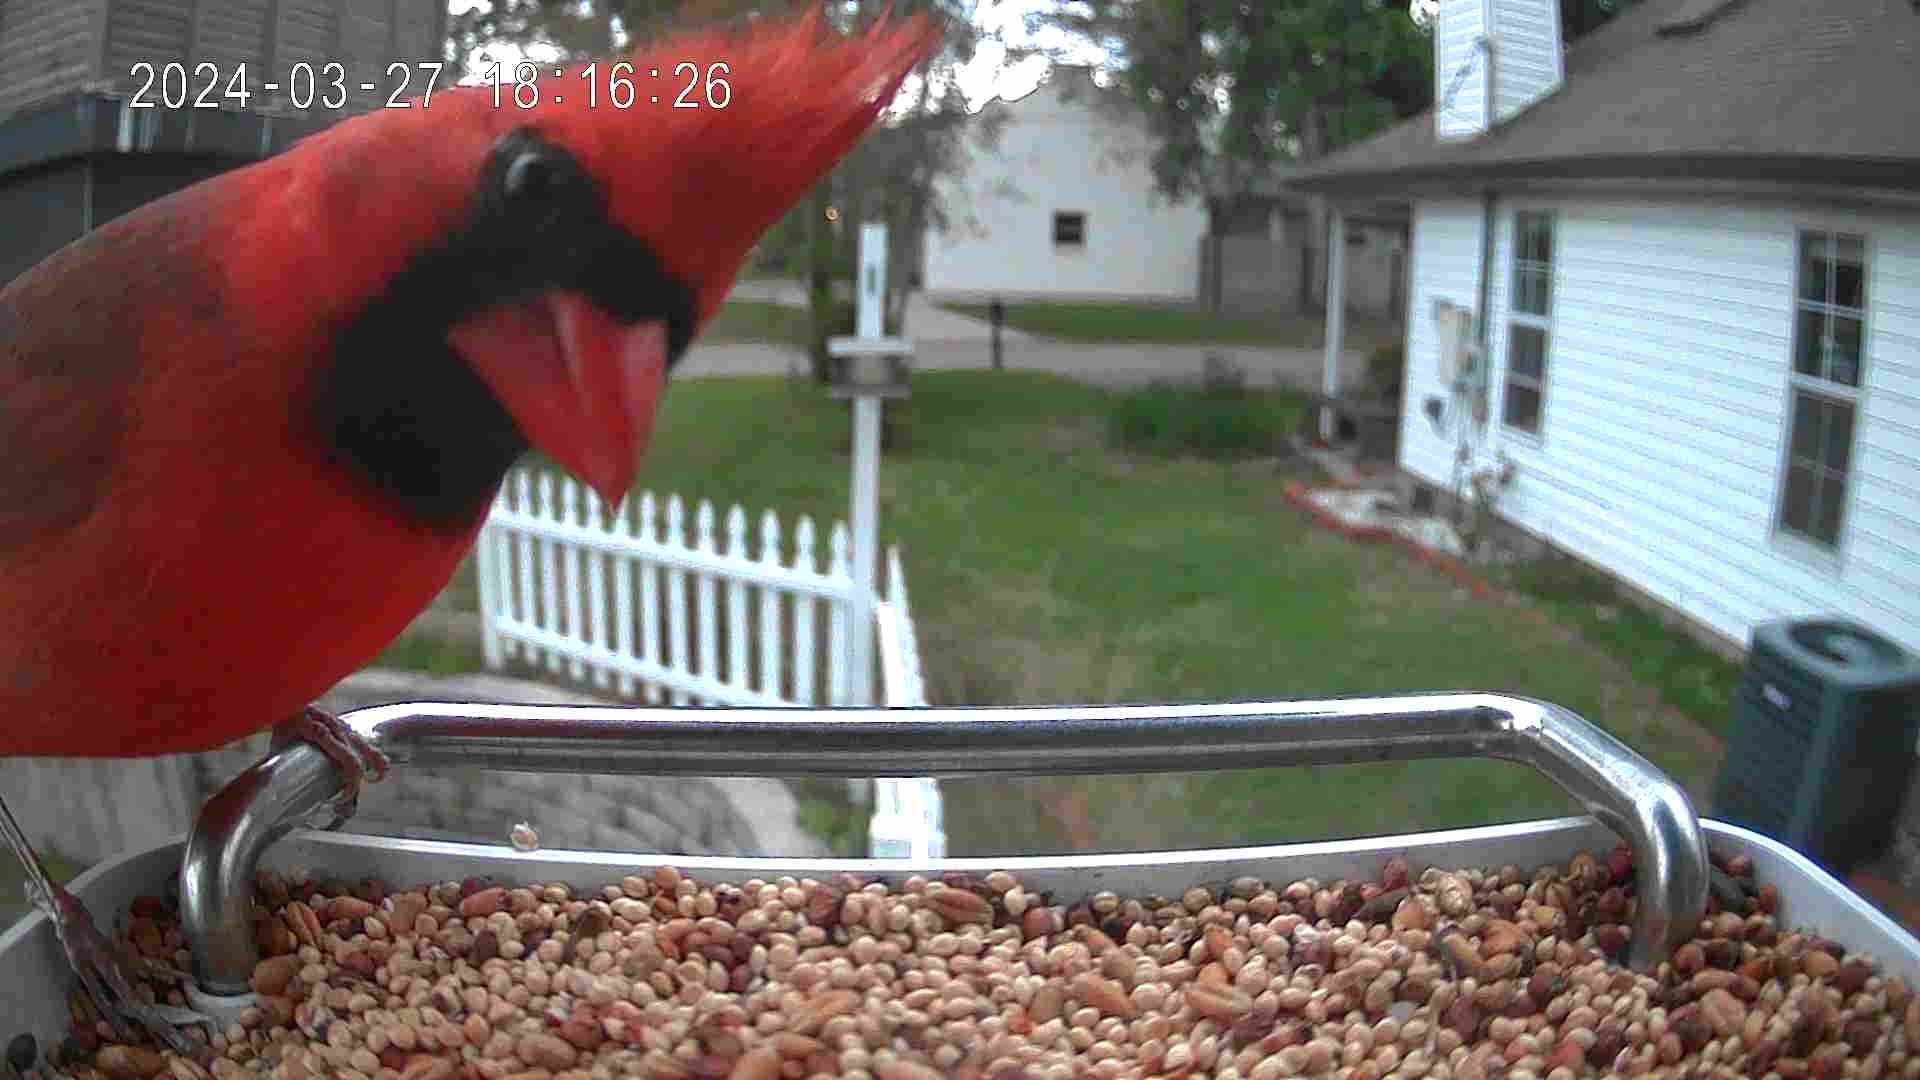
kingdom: Animalia
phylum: Chordata
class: Aves
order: Passeriformes
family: Cardinalidae
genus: Cardinalis
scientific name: Cardinalis cardinalis
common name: Northern cardinal
